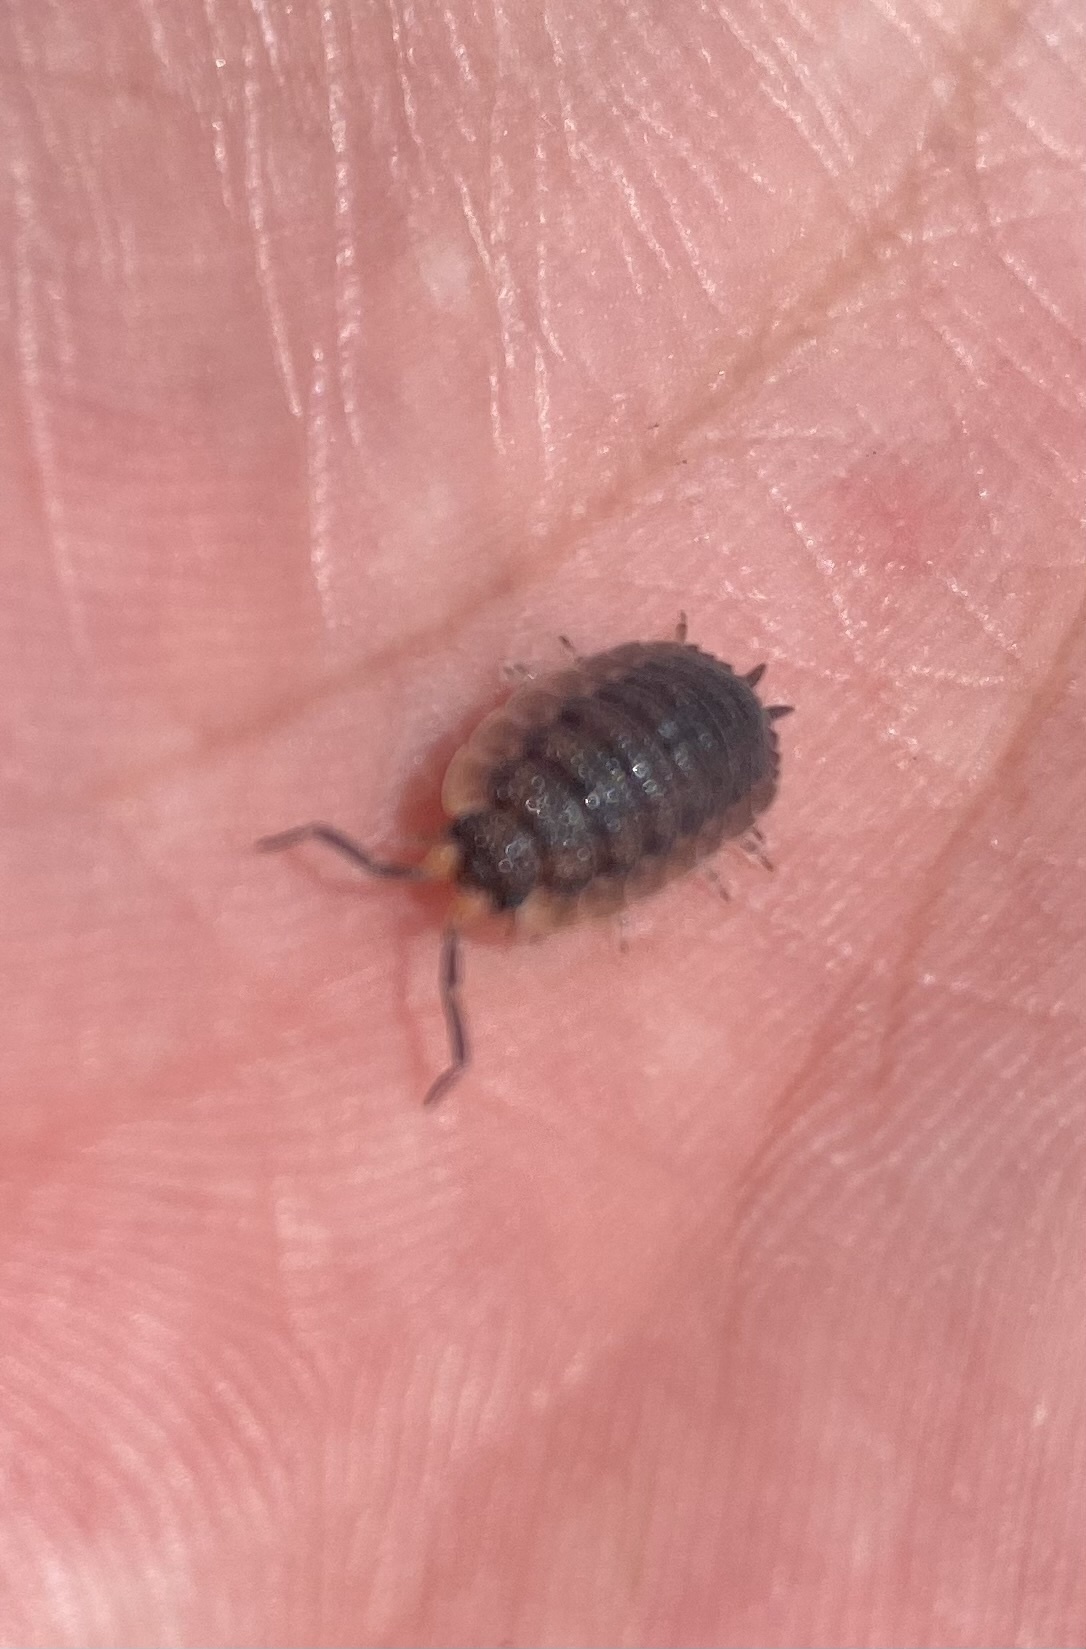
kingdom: Animalia
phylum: Arthropoda
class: Malacostraca
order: Isopoda
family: Porcellionidae
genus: Porcellio
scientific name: Porcellio scaber
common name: Common rough woodlouse
